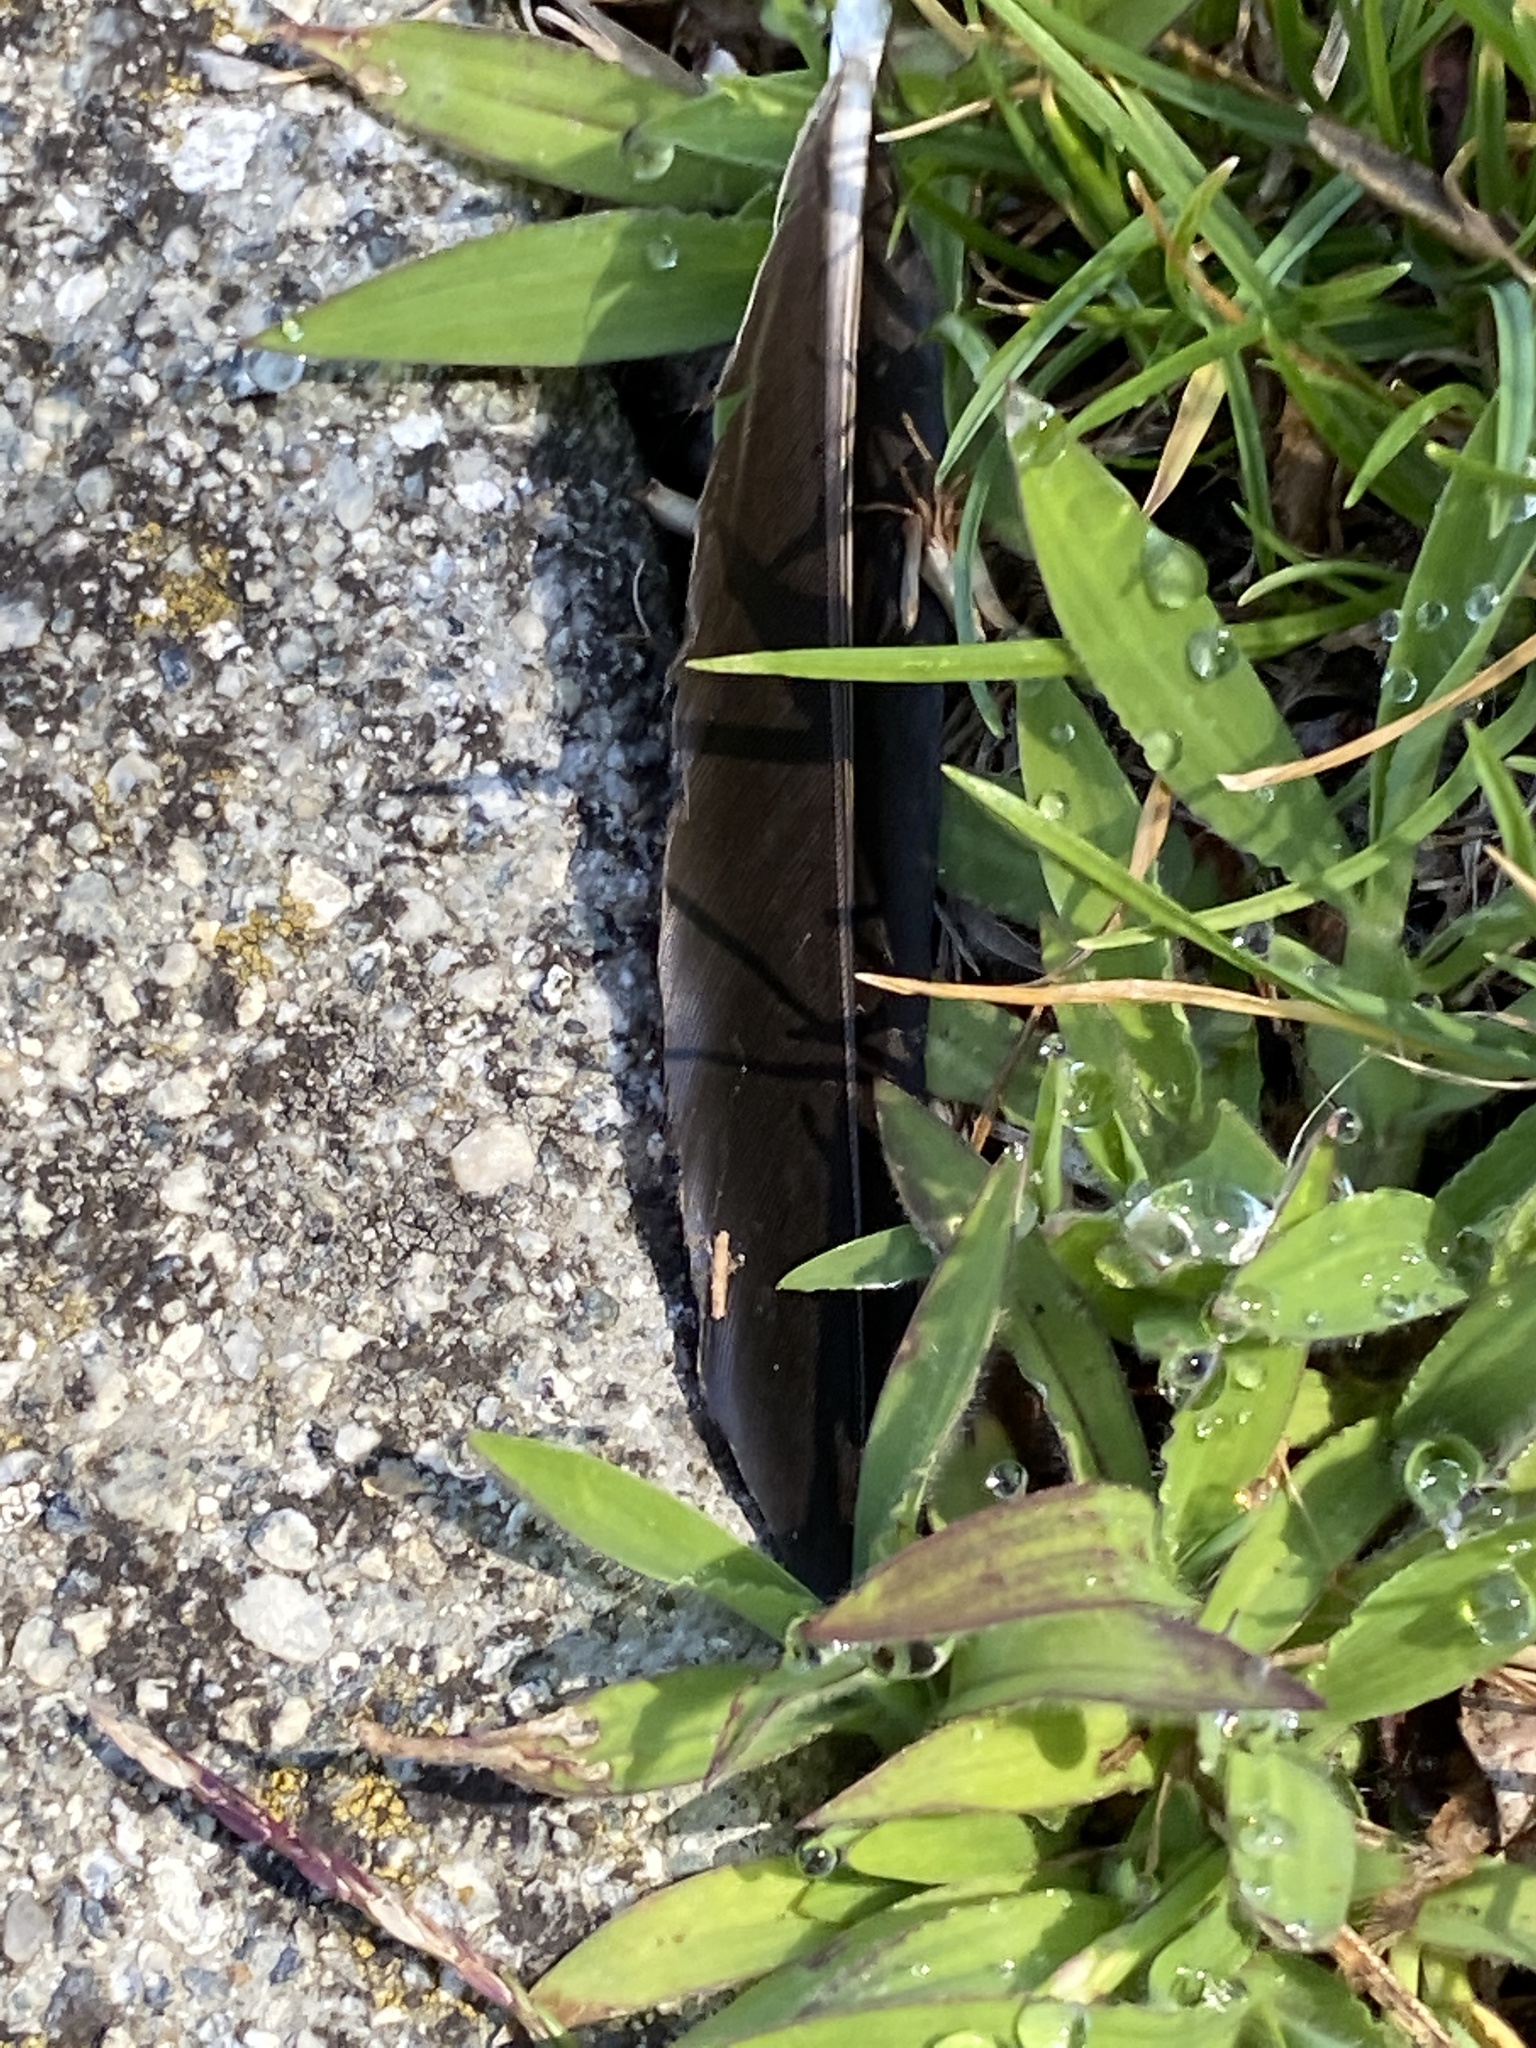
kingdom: Animalia
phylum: Chordata
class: Aves
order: Passeriformes
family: Corvidae
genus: Corvus
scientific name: Corvus brachyrhynchos
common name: American crow
